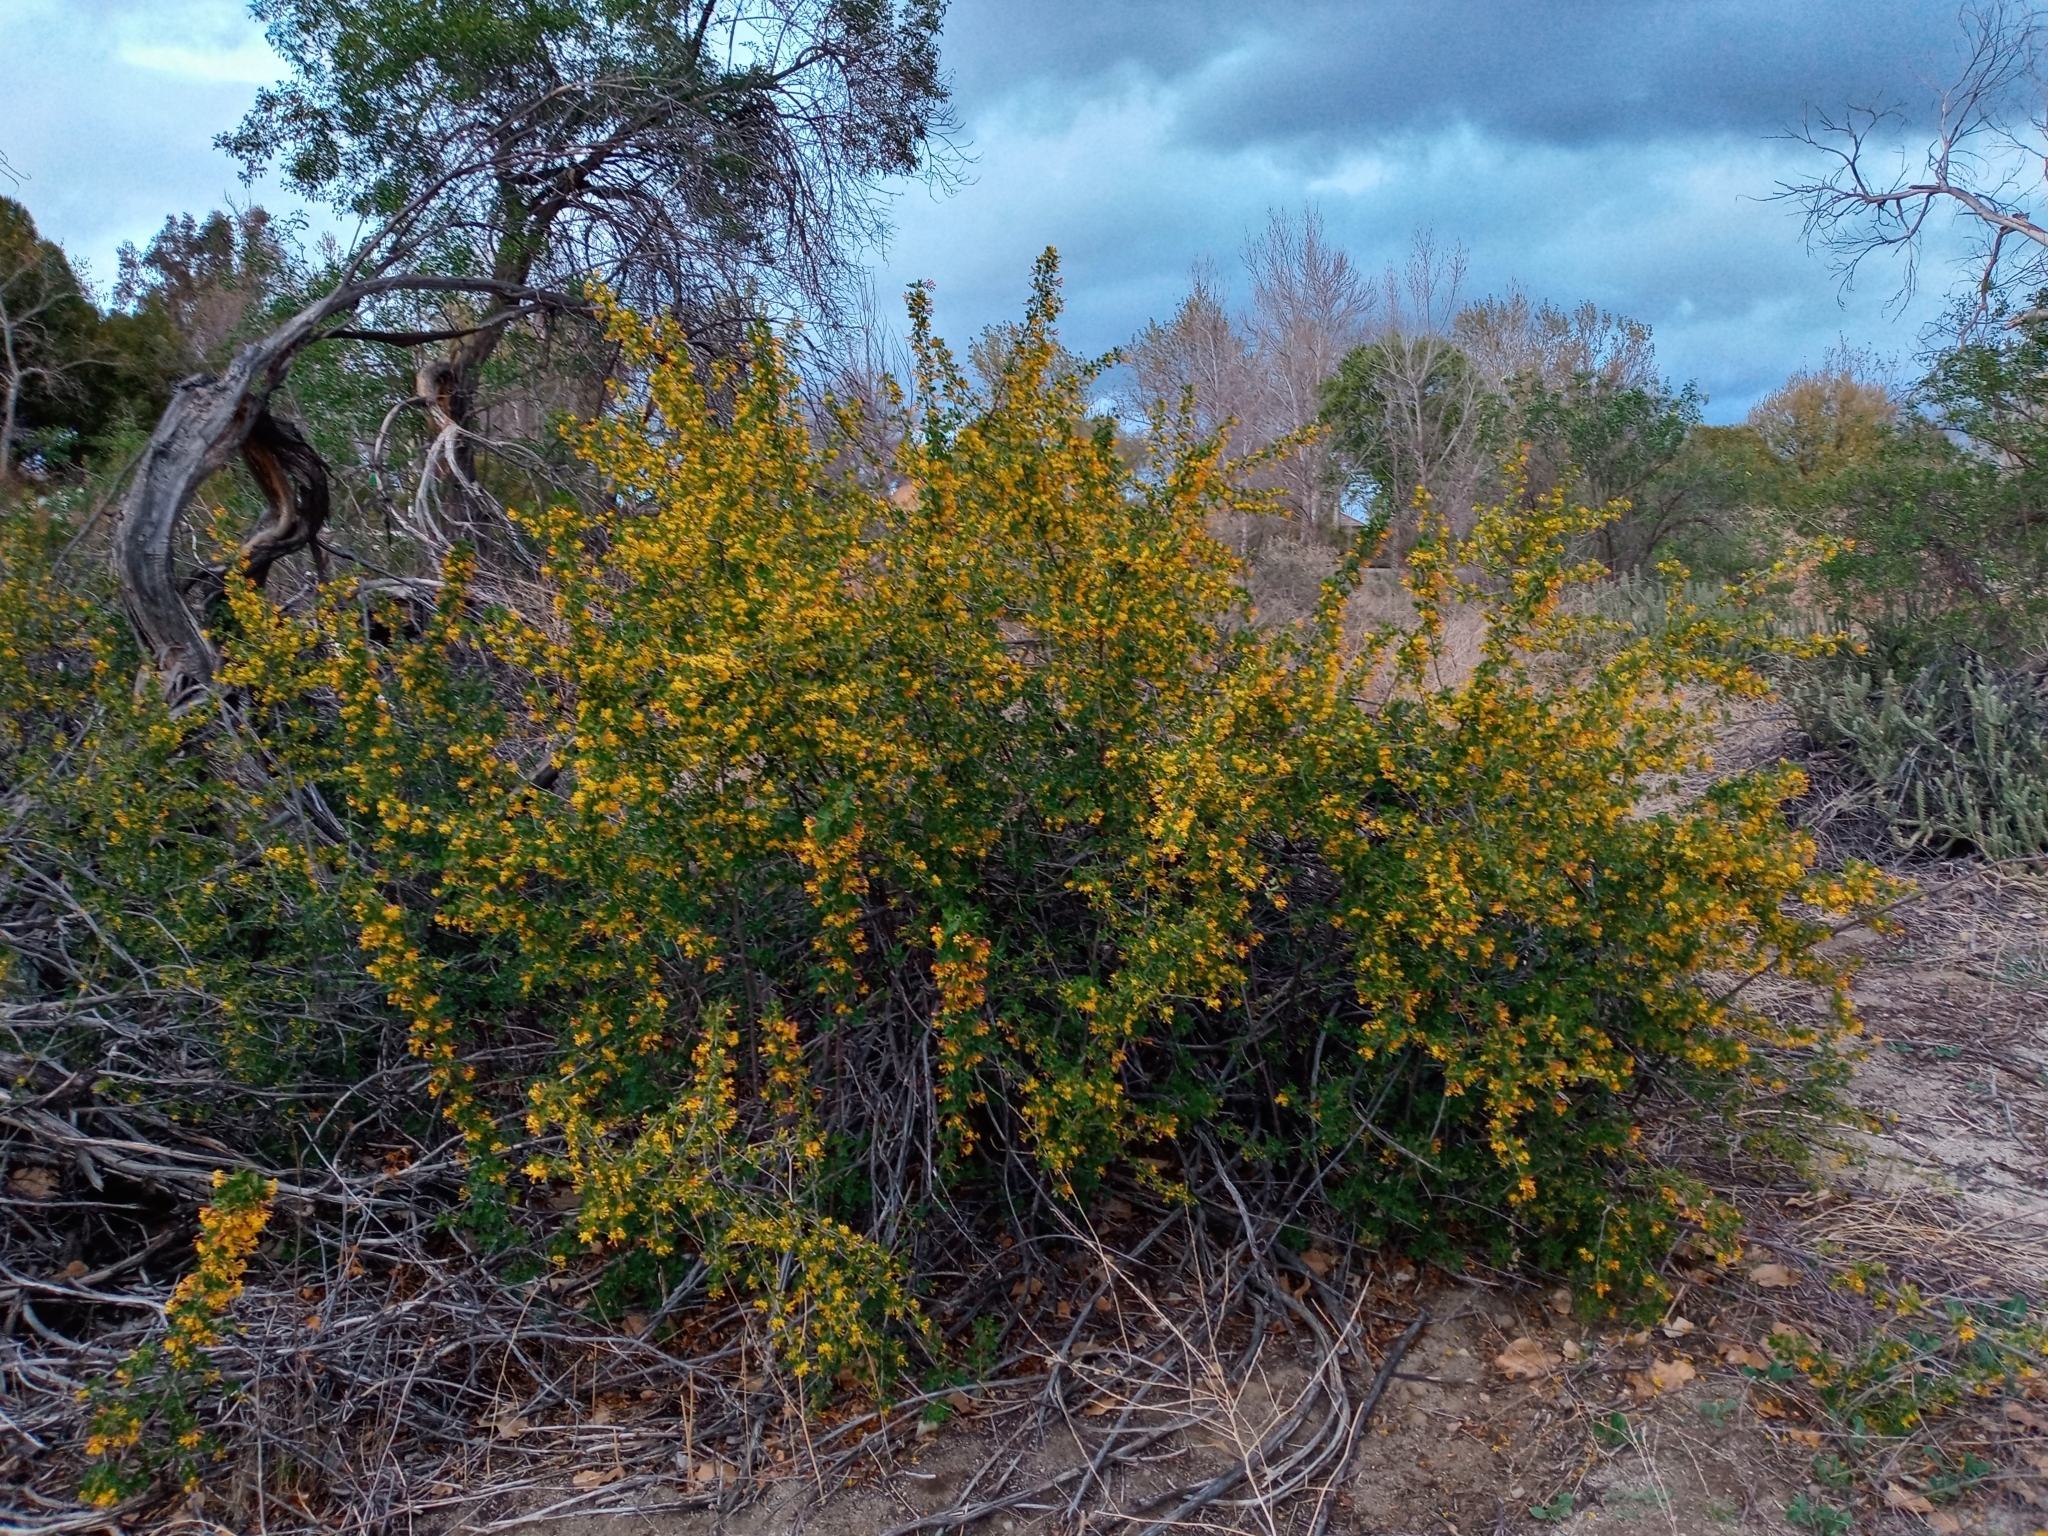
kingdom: Plantae
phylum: Tracheophyta
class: Magnoliopsida
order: Saxifragales
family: Grossulariaceae
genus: Ribes
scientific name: Ribes aureum
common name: Golden currant
